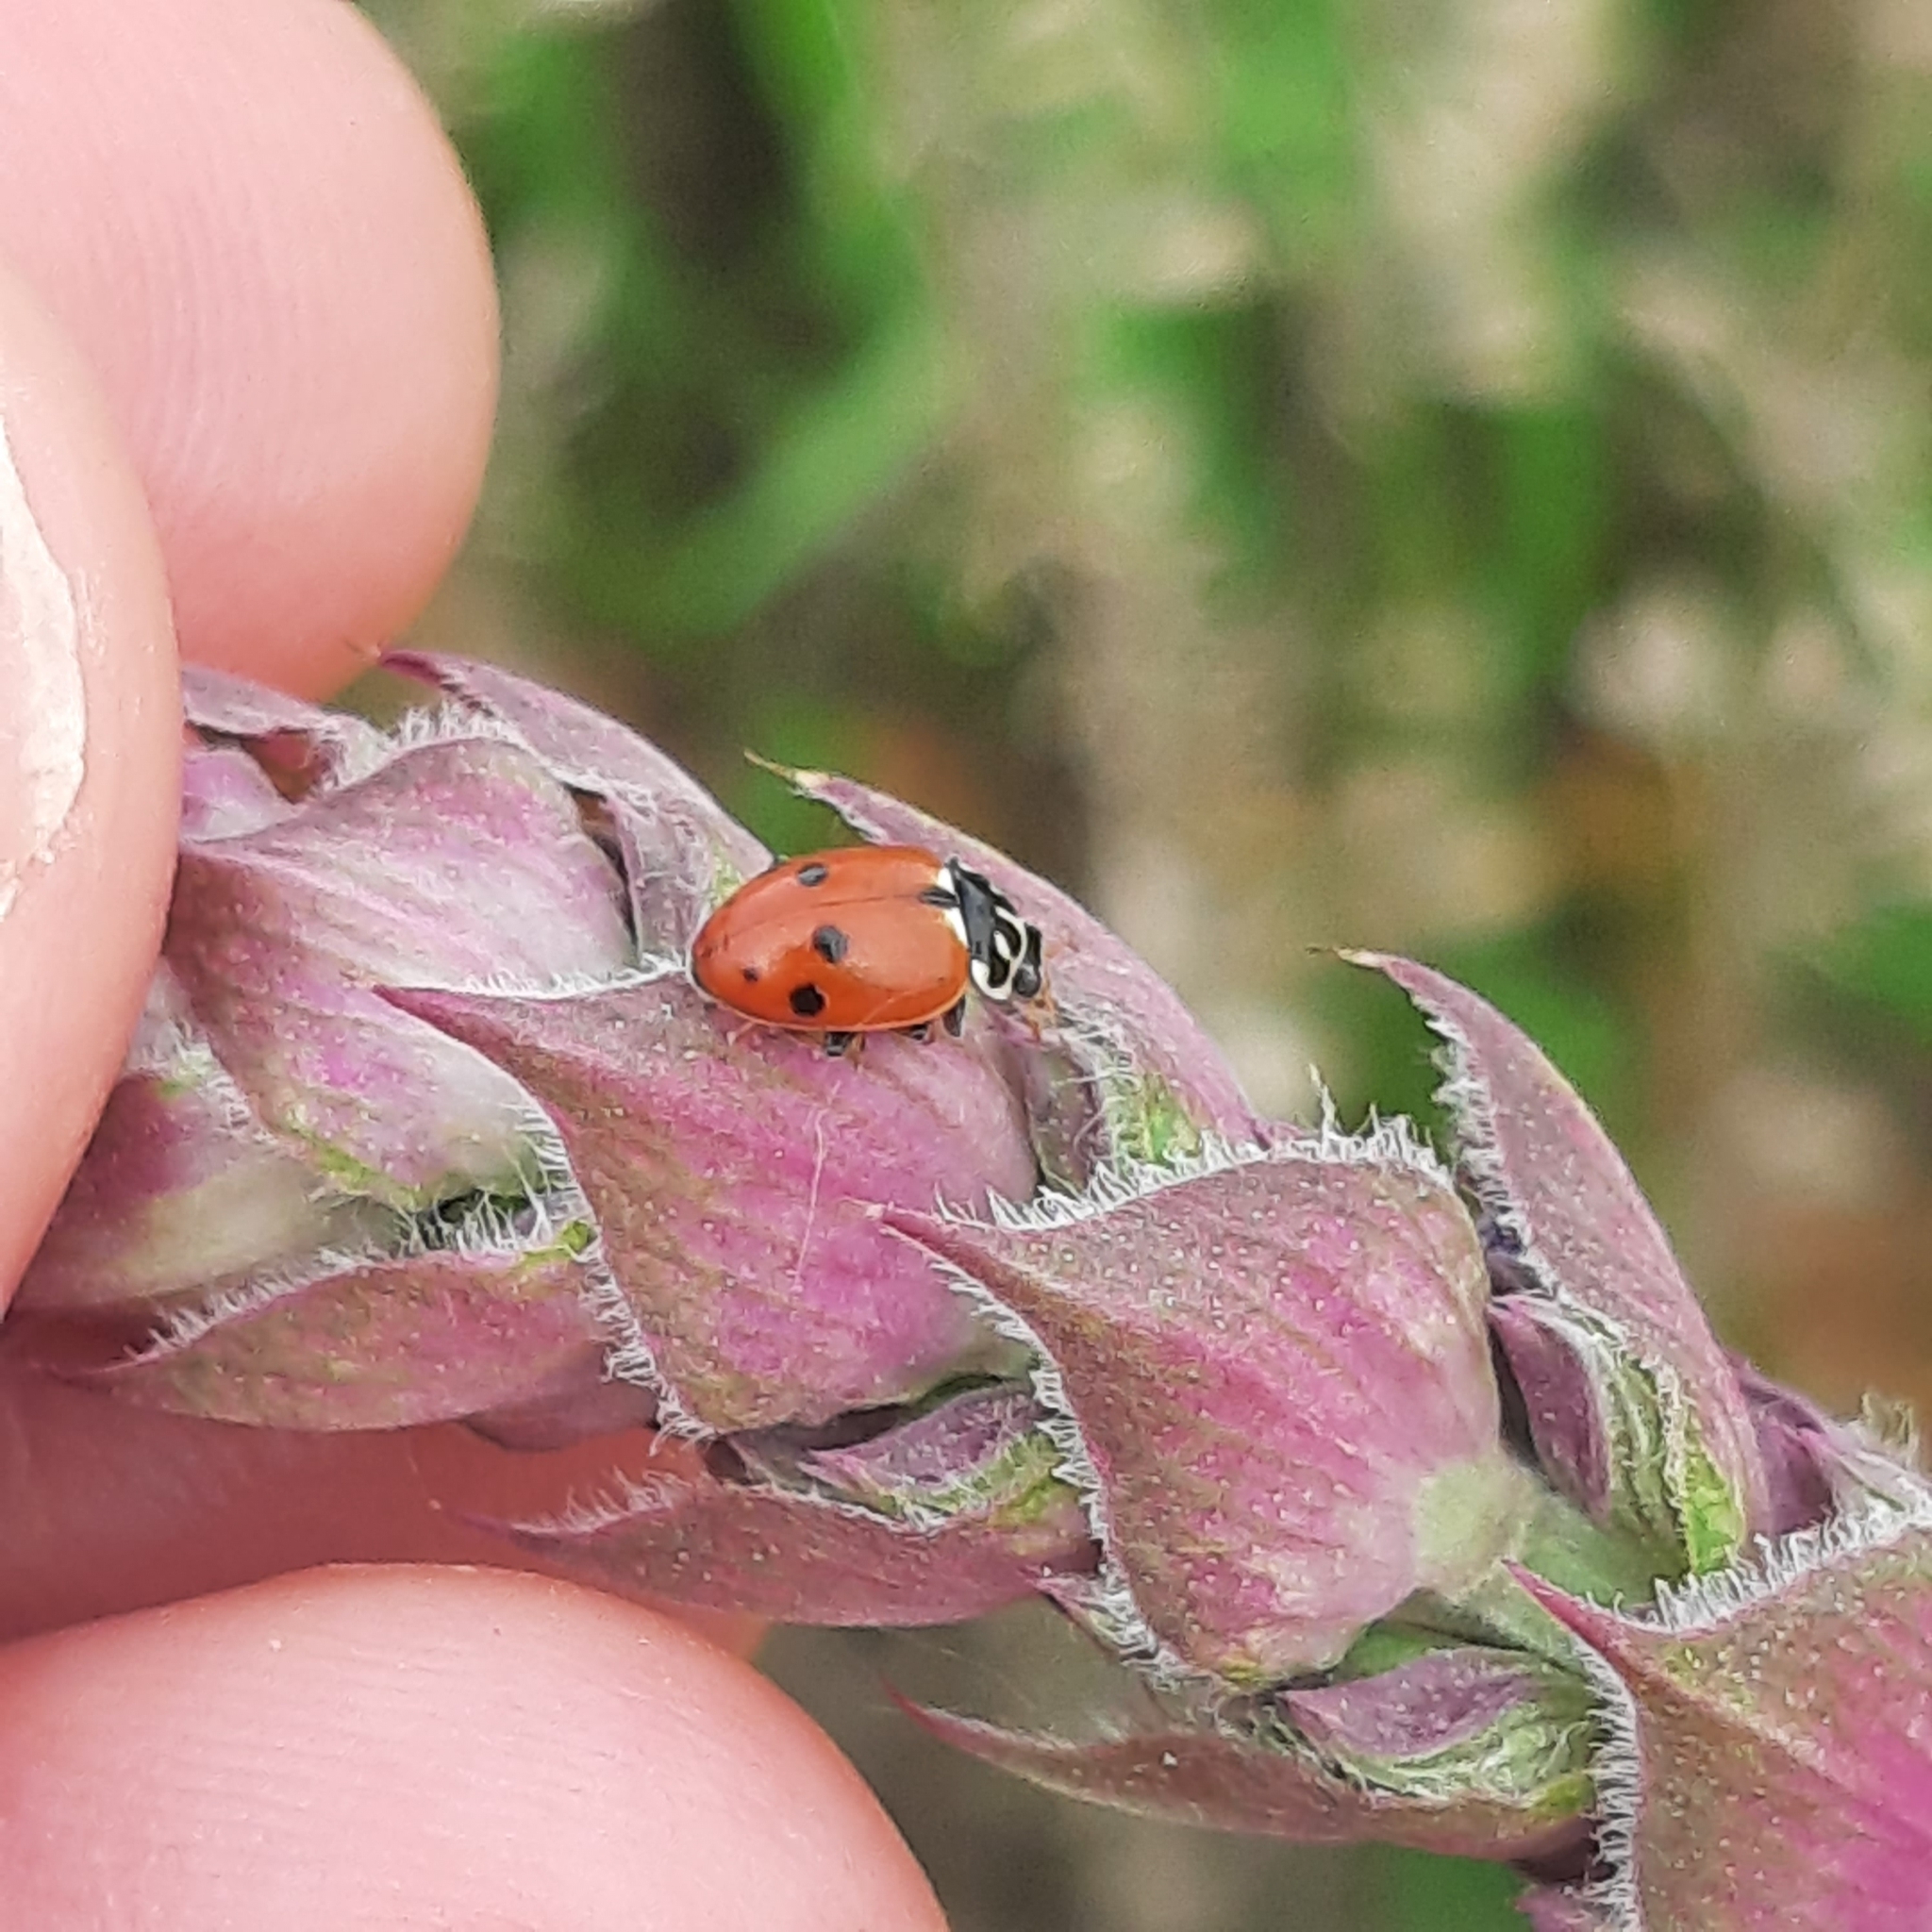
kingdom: Plantae
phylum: Tracheophyta
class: Magnoliopsida
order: Lamiales
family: Lamiaceae
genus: Salvia
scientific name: Salvia nemorosa
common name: Balkan clary
